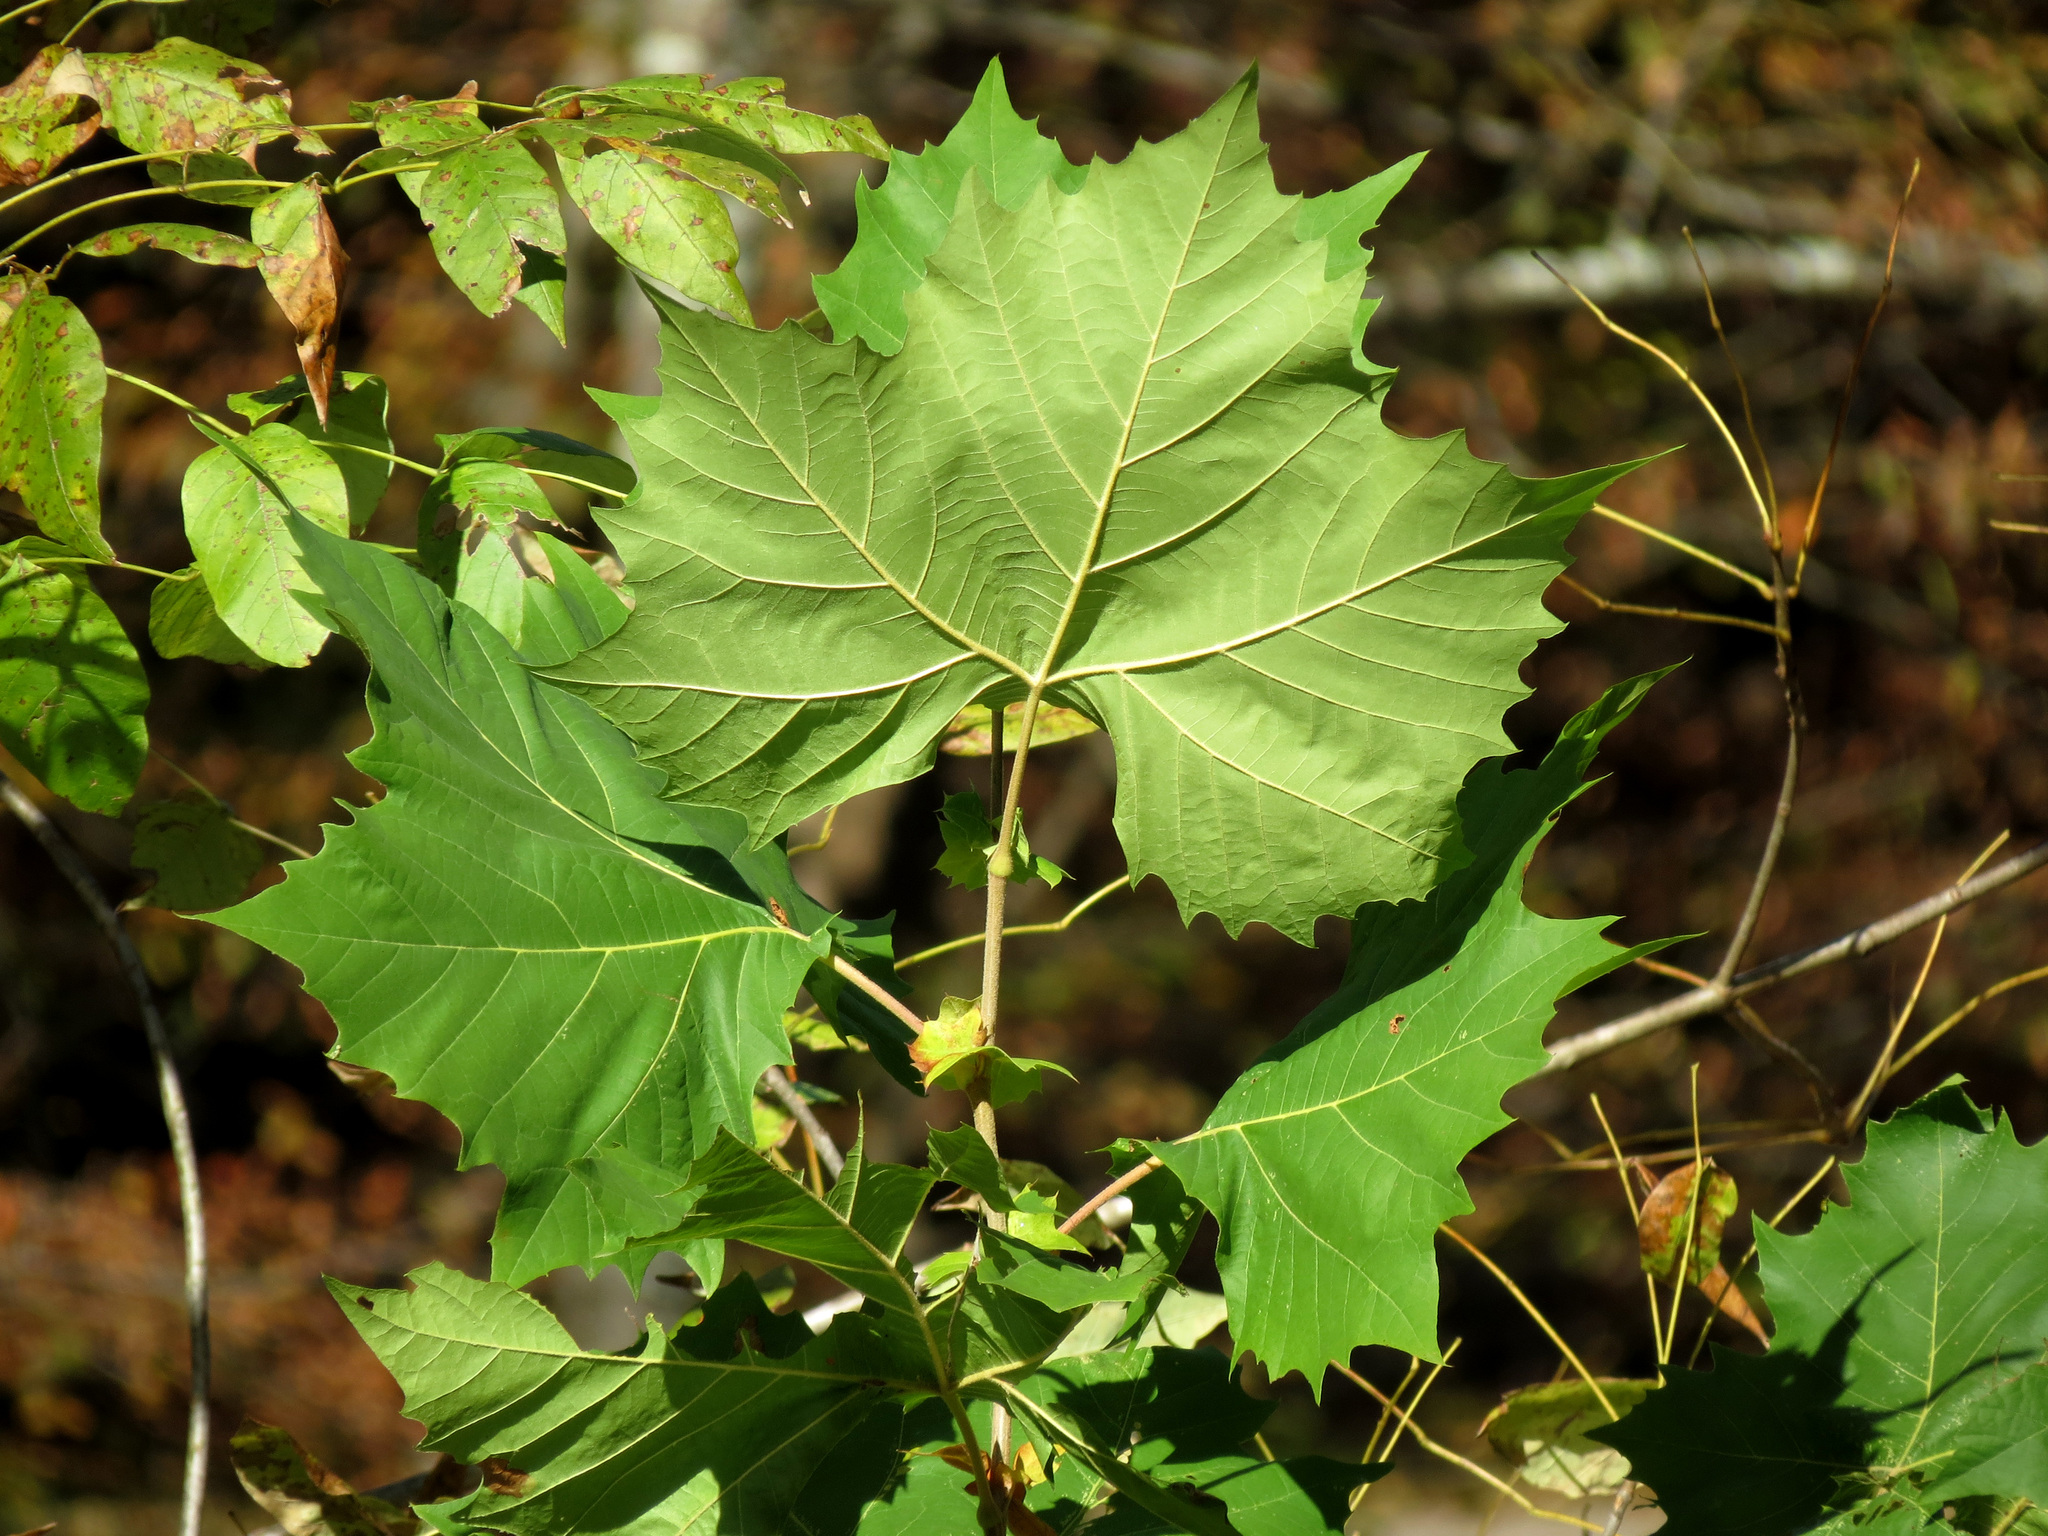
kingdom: Plantae
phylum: Tracheophyta
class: Magnoliopsida
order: Proteales
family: Platanaceae
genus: Platanus
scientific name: Platanus occidentalis
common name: American sycamore
